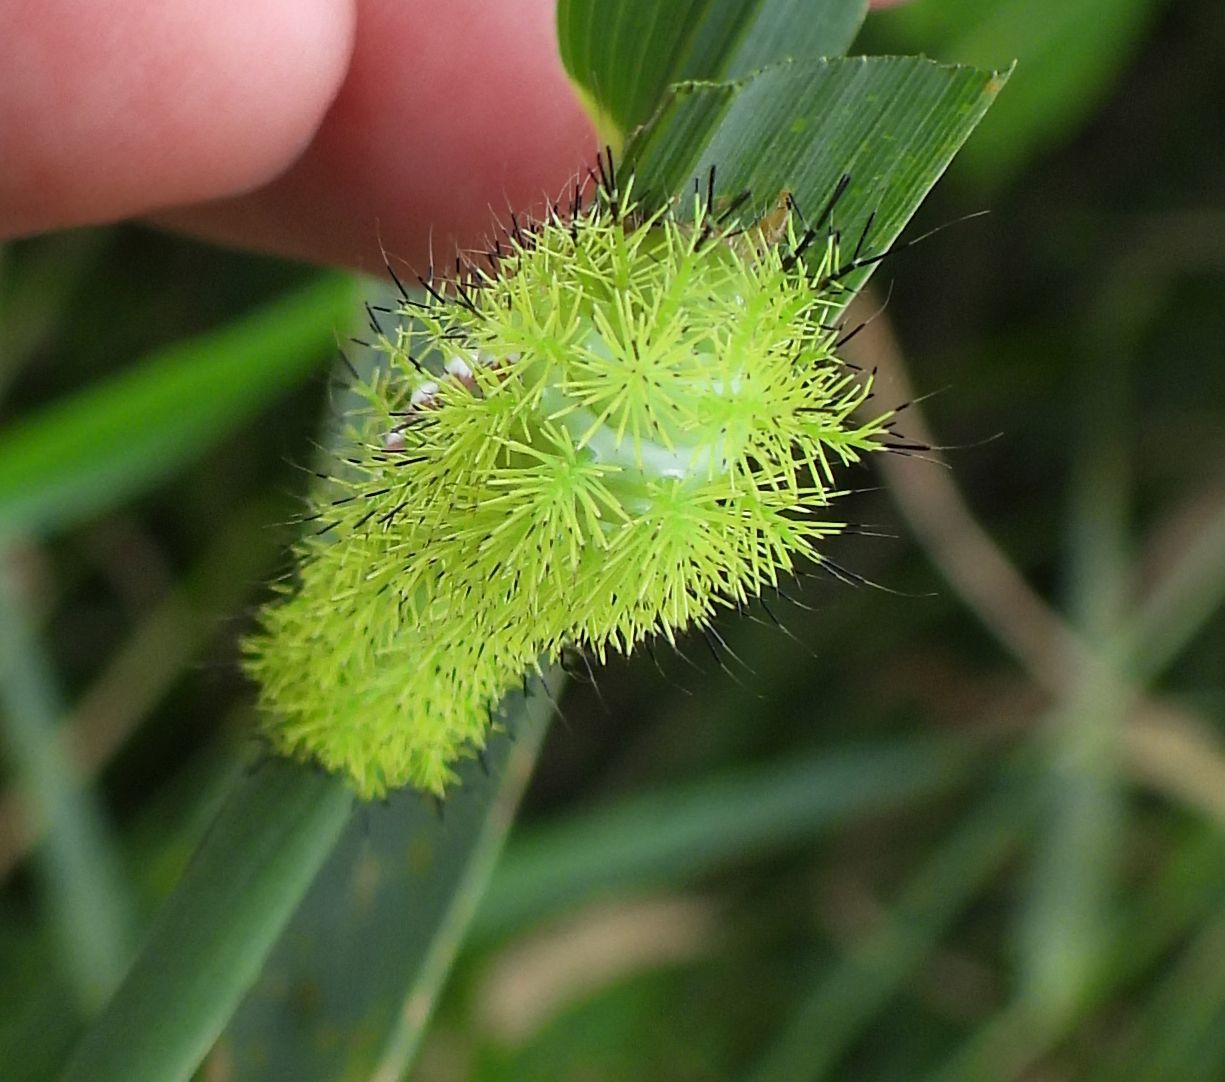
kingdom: Animalia
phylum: Arthropoda
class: Insecta
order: Lepidoptera
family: Saturniidae
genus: Automeris
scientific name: Automeris io
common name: Io moth
